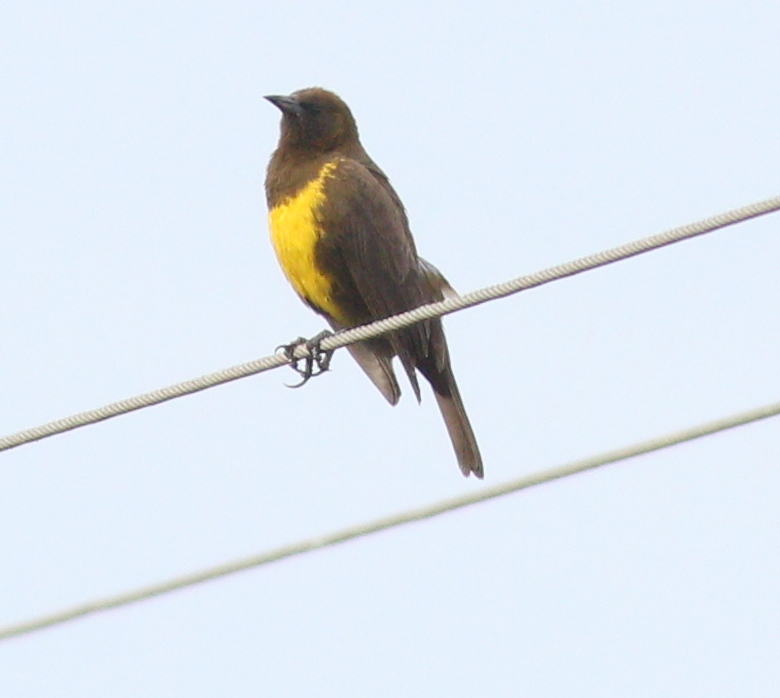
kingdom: Animalia
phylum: Chordata
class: Aves
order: Passeriformes
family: Icteridae
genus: Pseudoleistes
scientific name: Pseudoleistes virescens
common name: Brown-and-yellow marshbird
